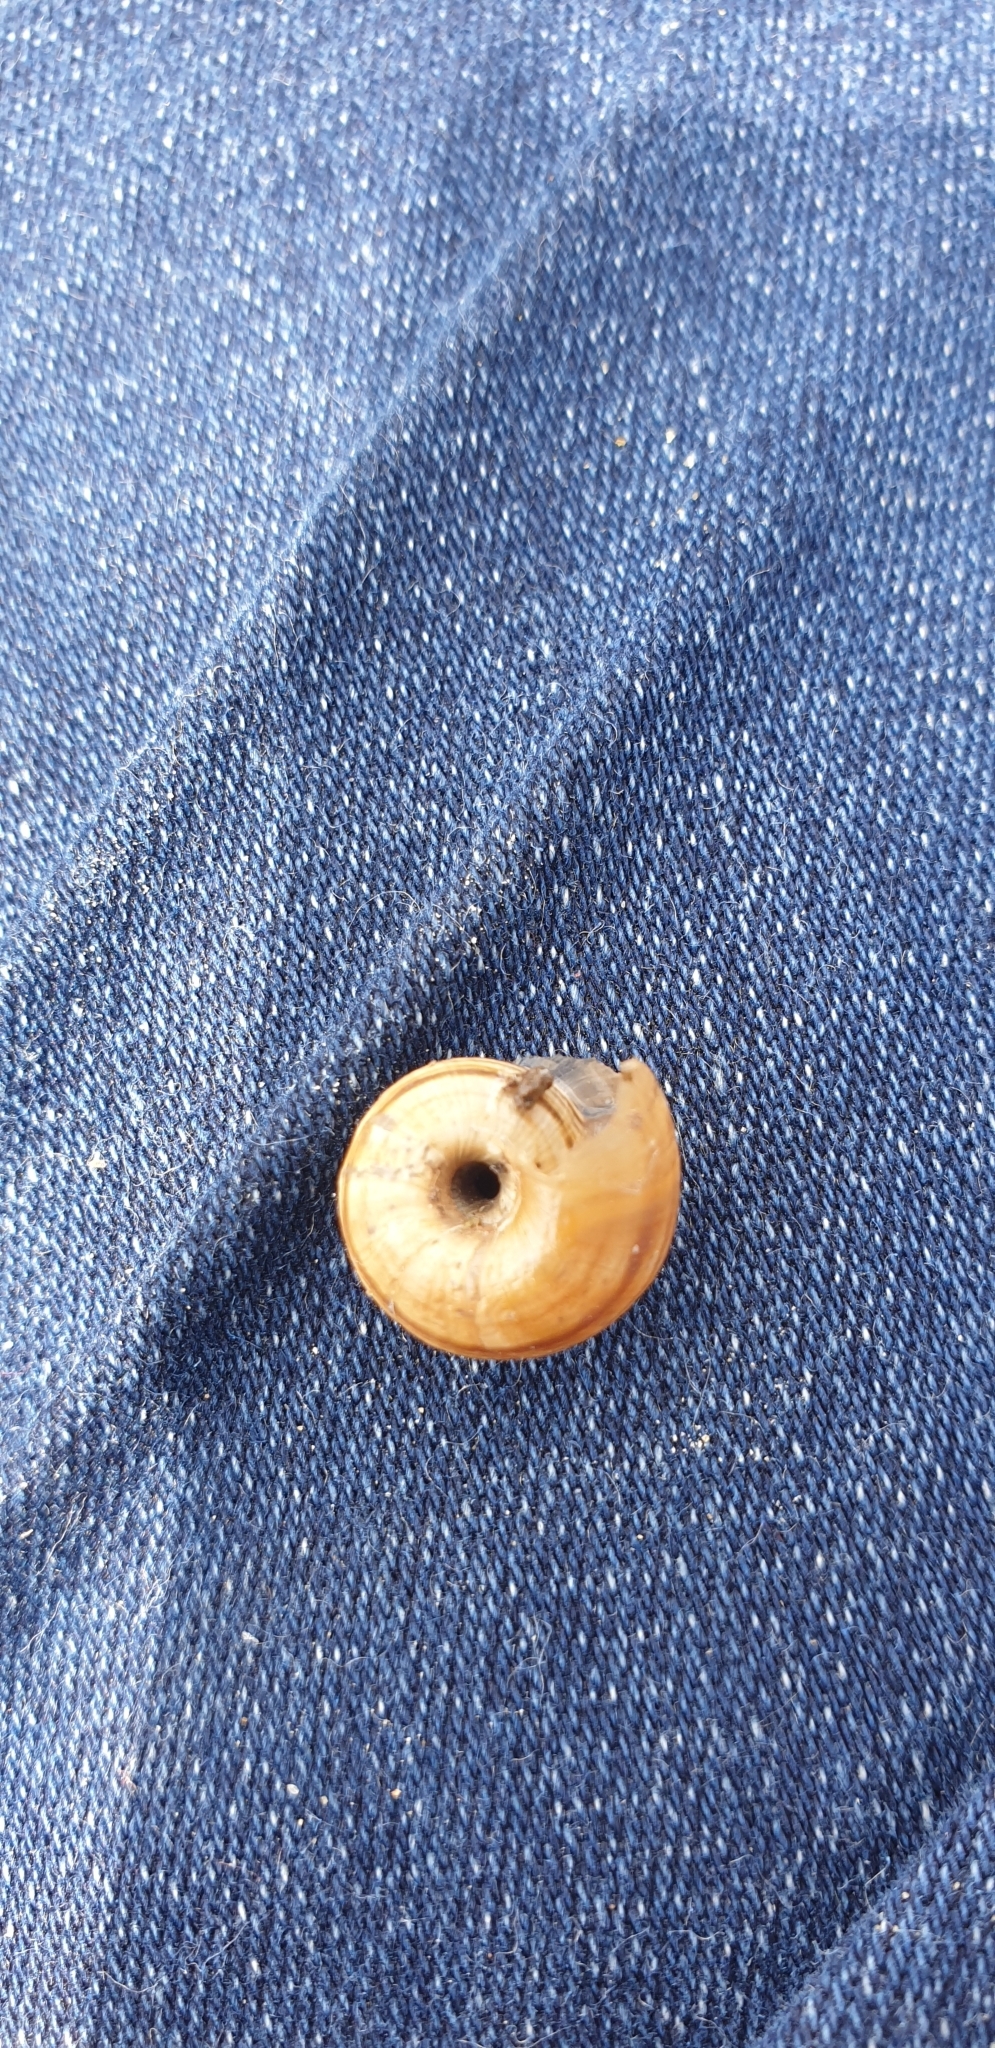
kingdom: Animalia
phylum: Mollusca
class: Gastropoda
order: Stylommatophora
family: Geomitridae
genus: Helicella
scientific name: Helicella itala
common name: Heath snail
